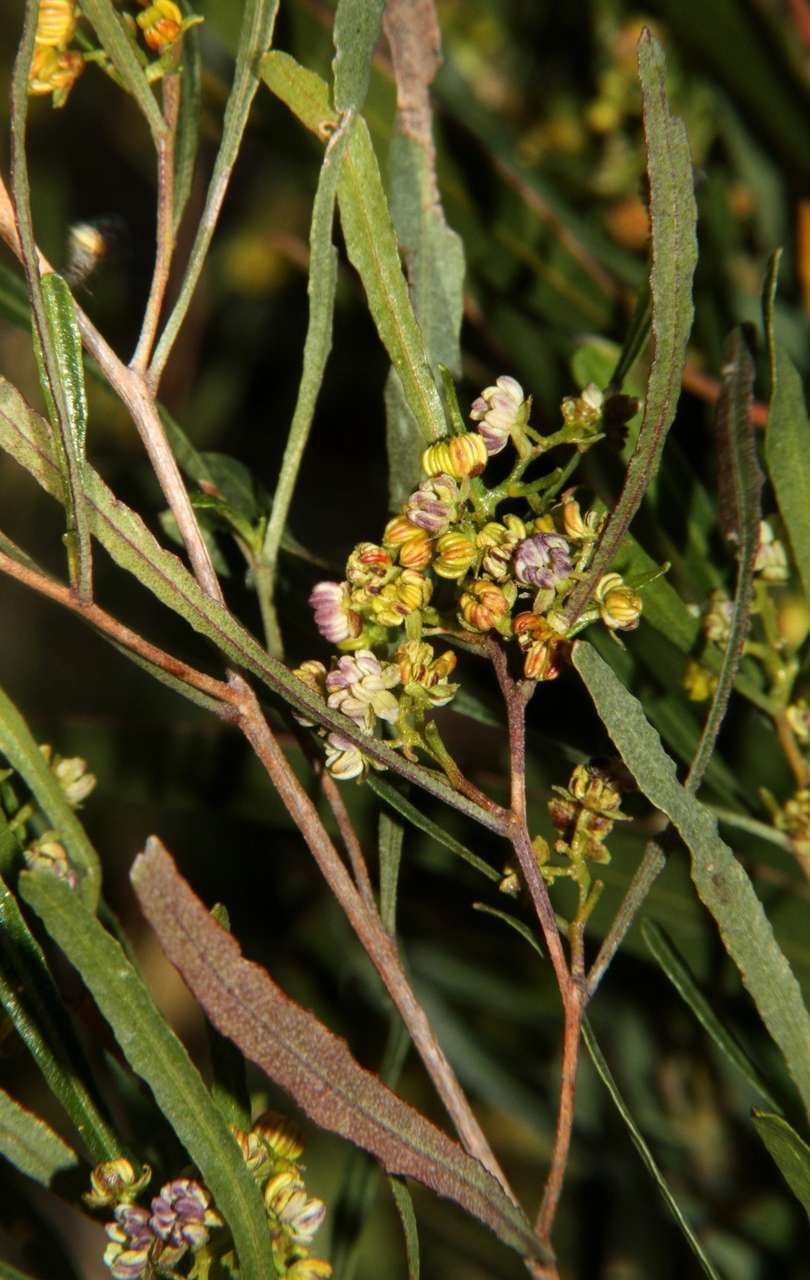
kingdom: Plantae
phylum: Tracheophyta
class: Magnoliopsida
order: Sapindales
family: Sapindaceae
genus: Dodonaea
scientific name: Dodonaea viscosa
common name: Hopbush
